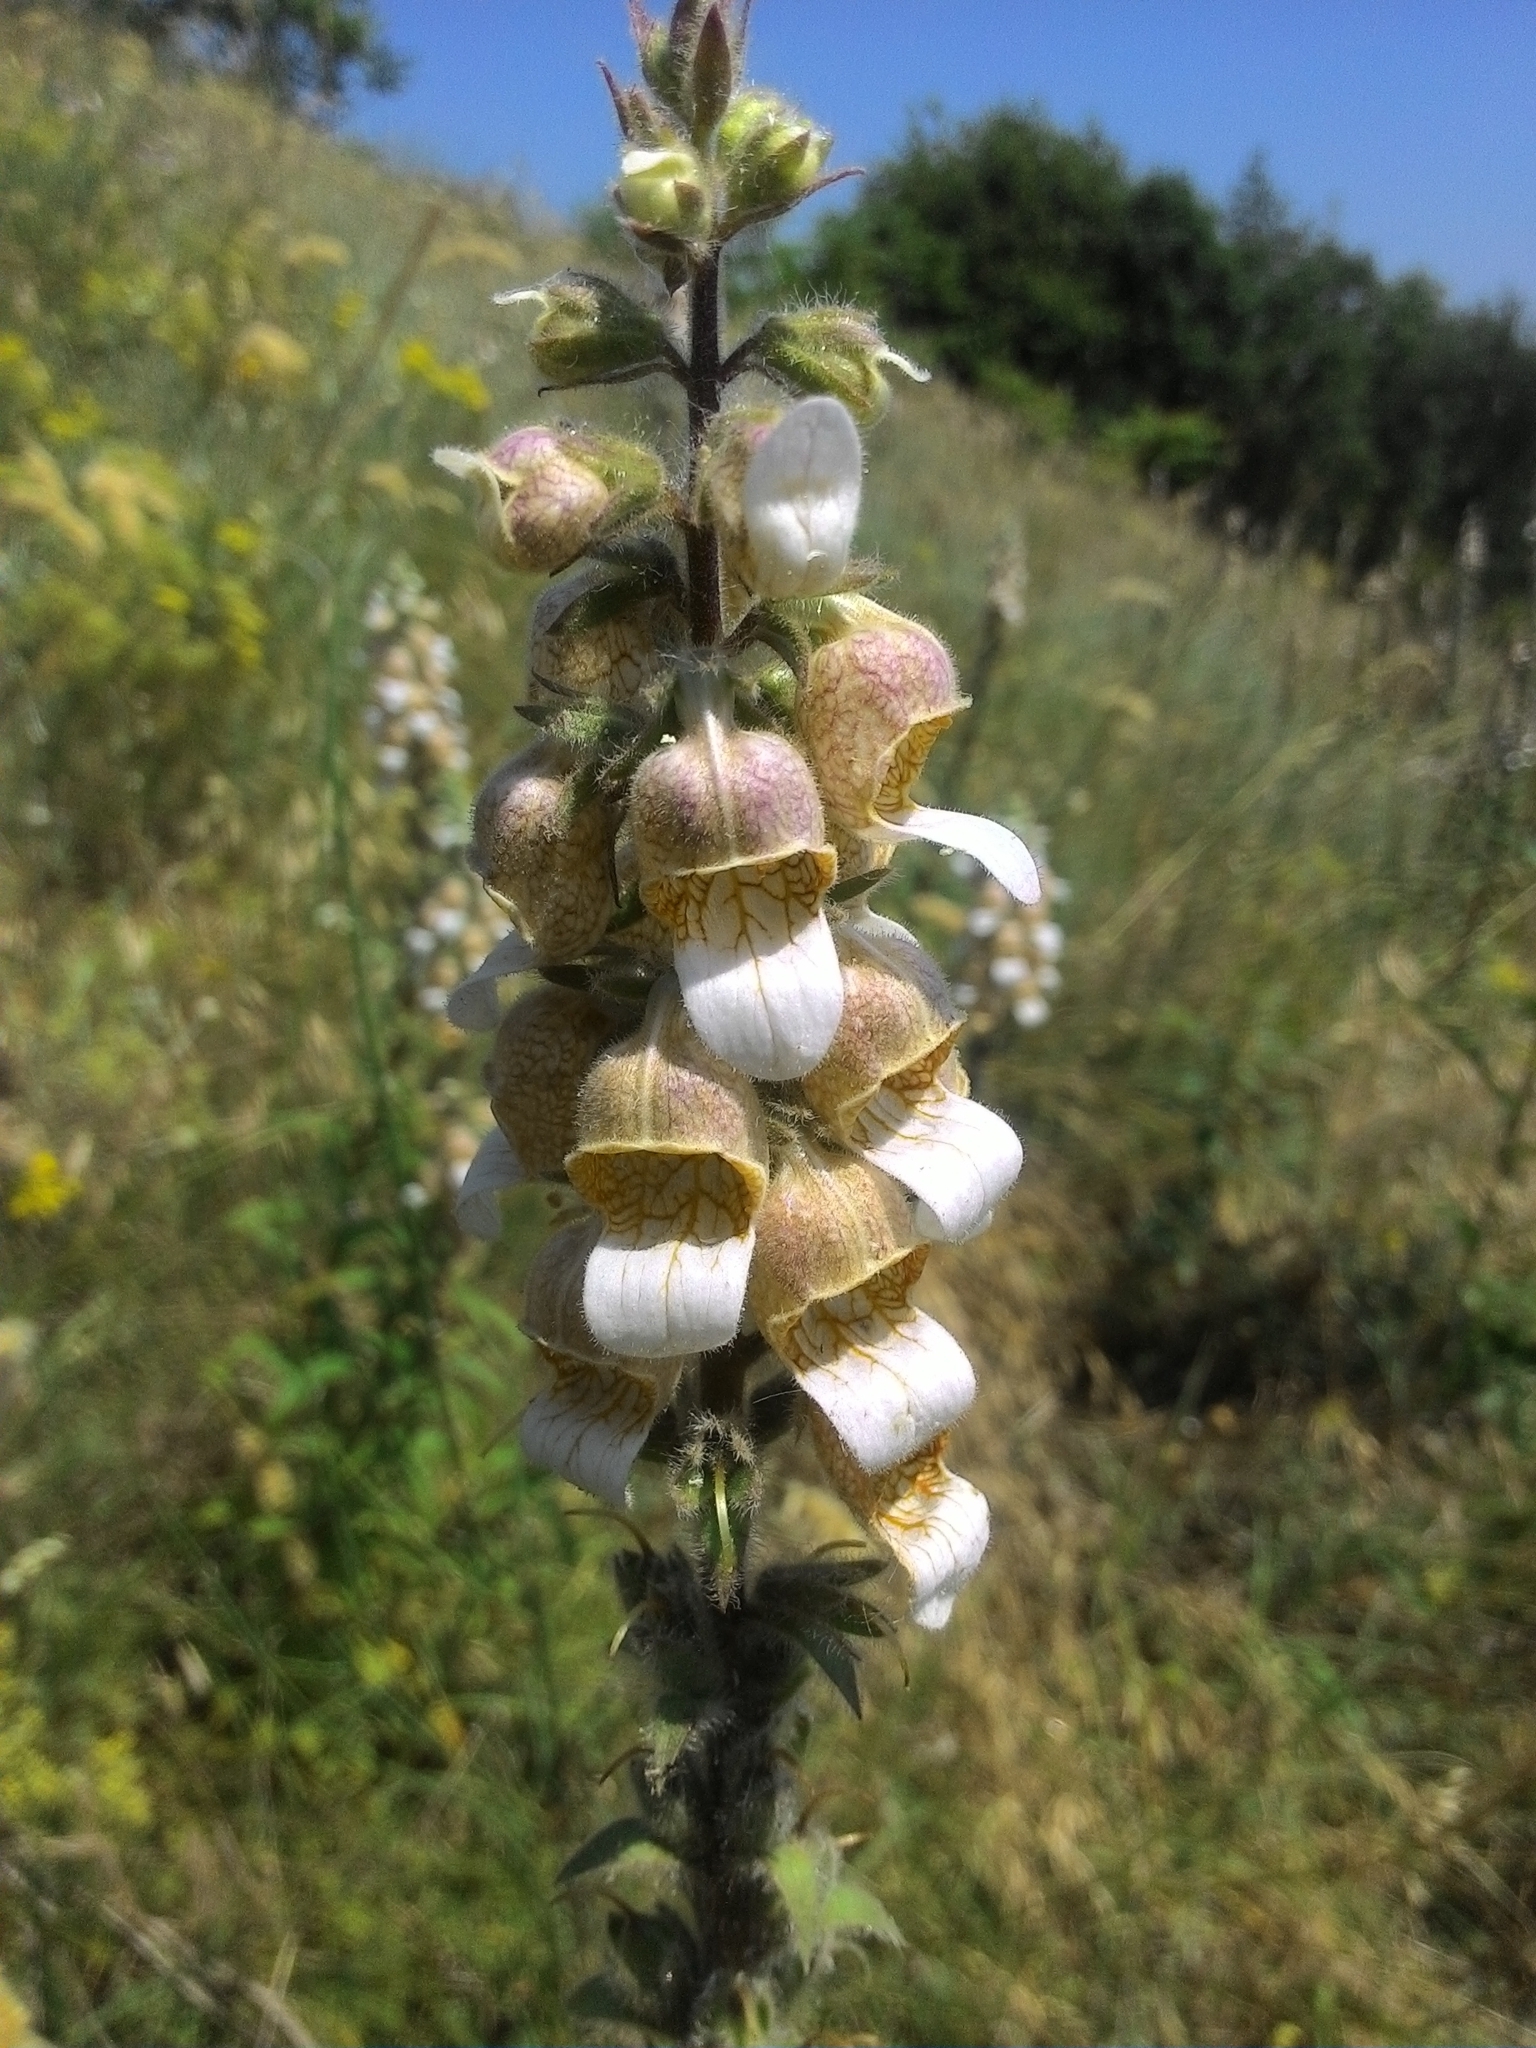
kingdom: Plantae
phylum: Tracheophyta
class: Magnoliopsida
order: Lamiales
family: Plantaginaceae
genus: Digitalis
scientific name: Digitalis lanata
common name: Grecian foxglove
